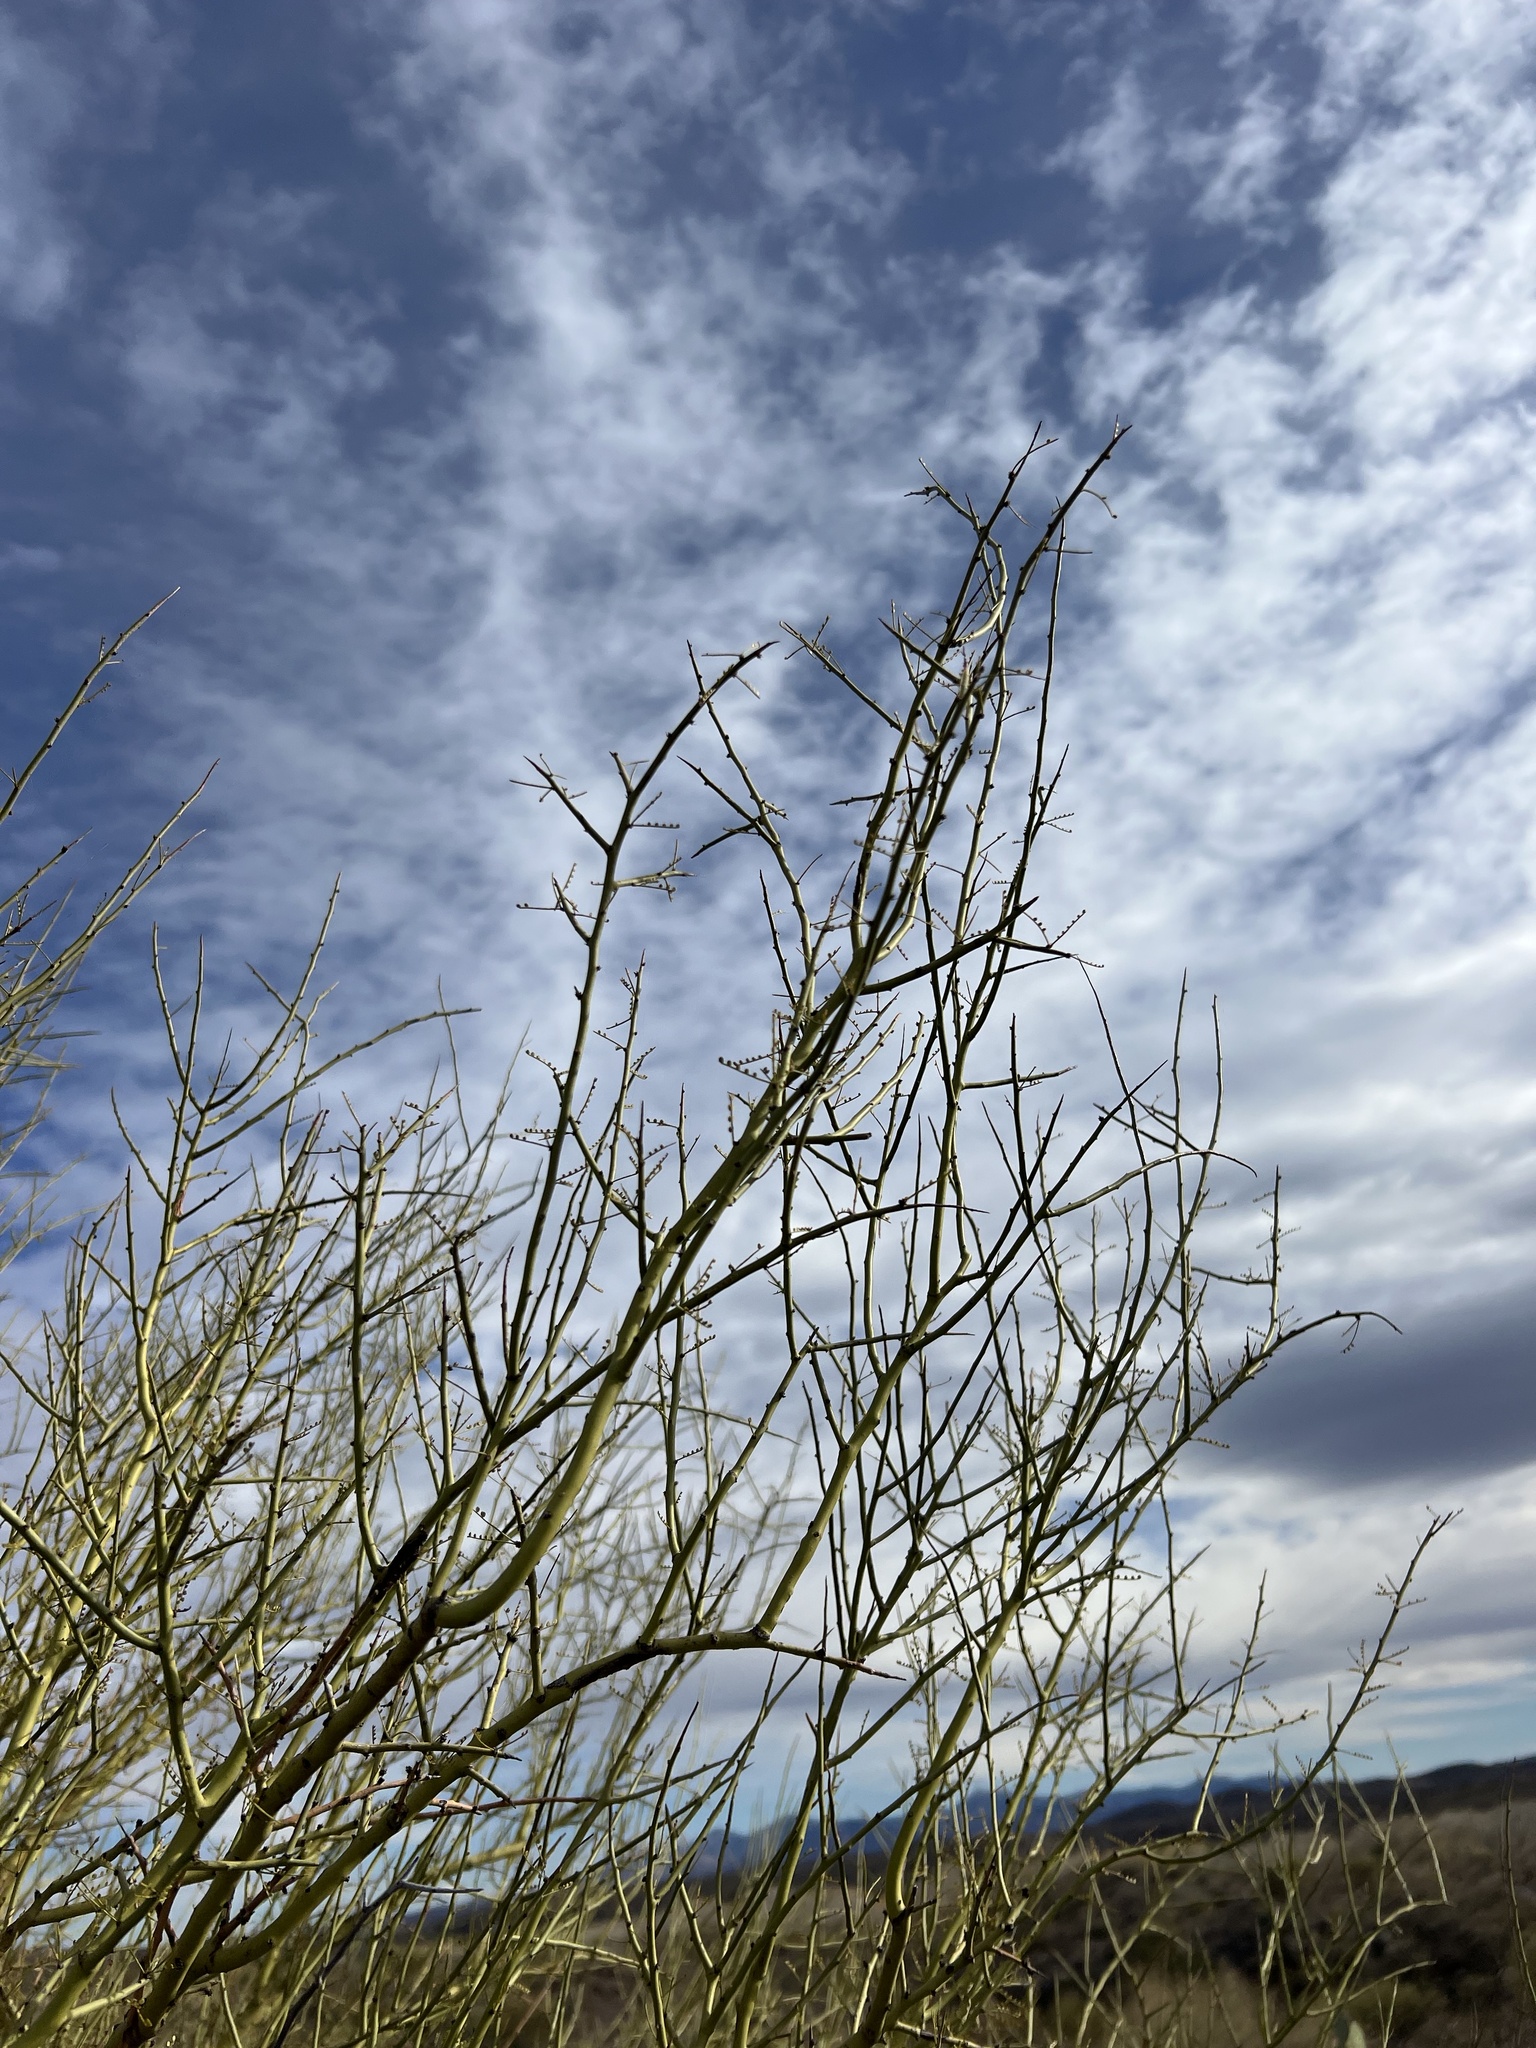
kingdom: Plantae
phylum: Tracheophyta
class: Magnoliopsida
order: Fabales
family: Fabaceae
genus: Parkinsonia
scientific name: Parkinsonia microphylla
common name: Yellow paloverde
